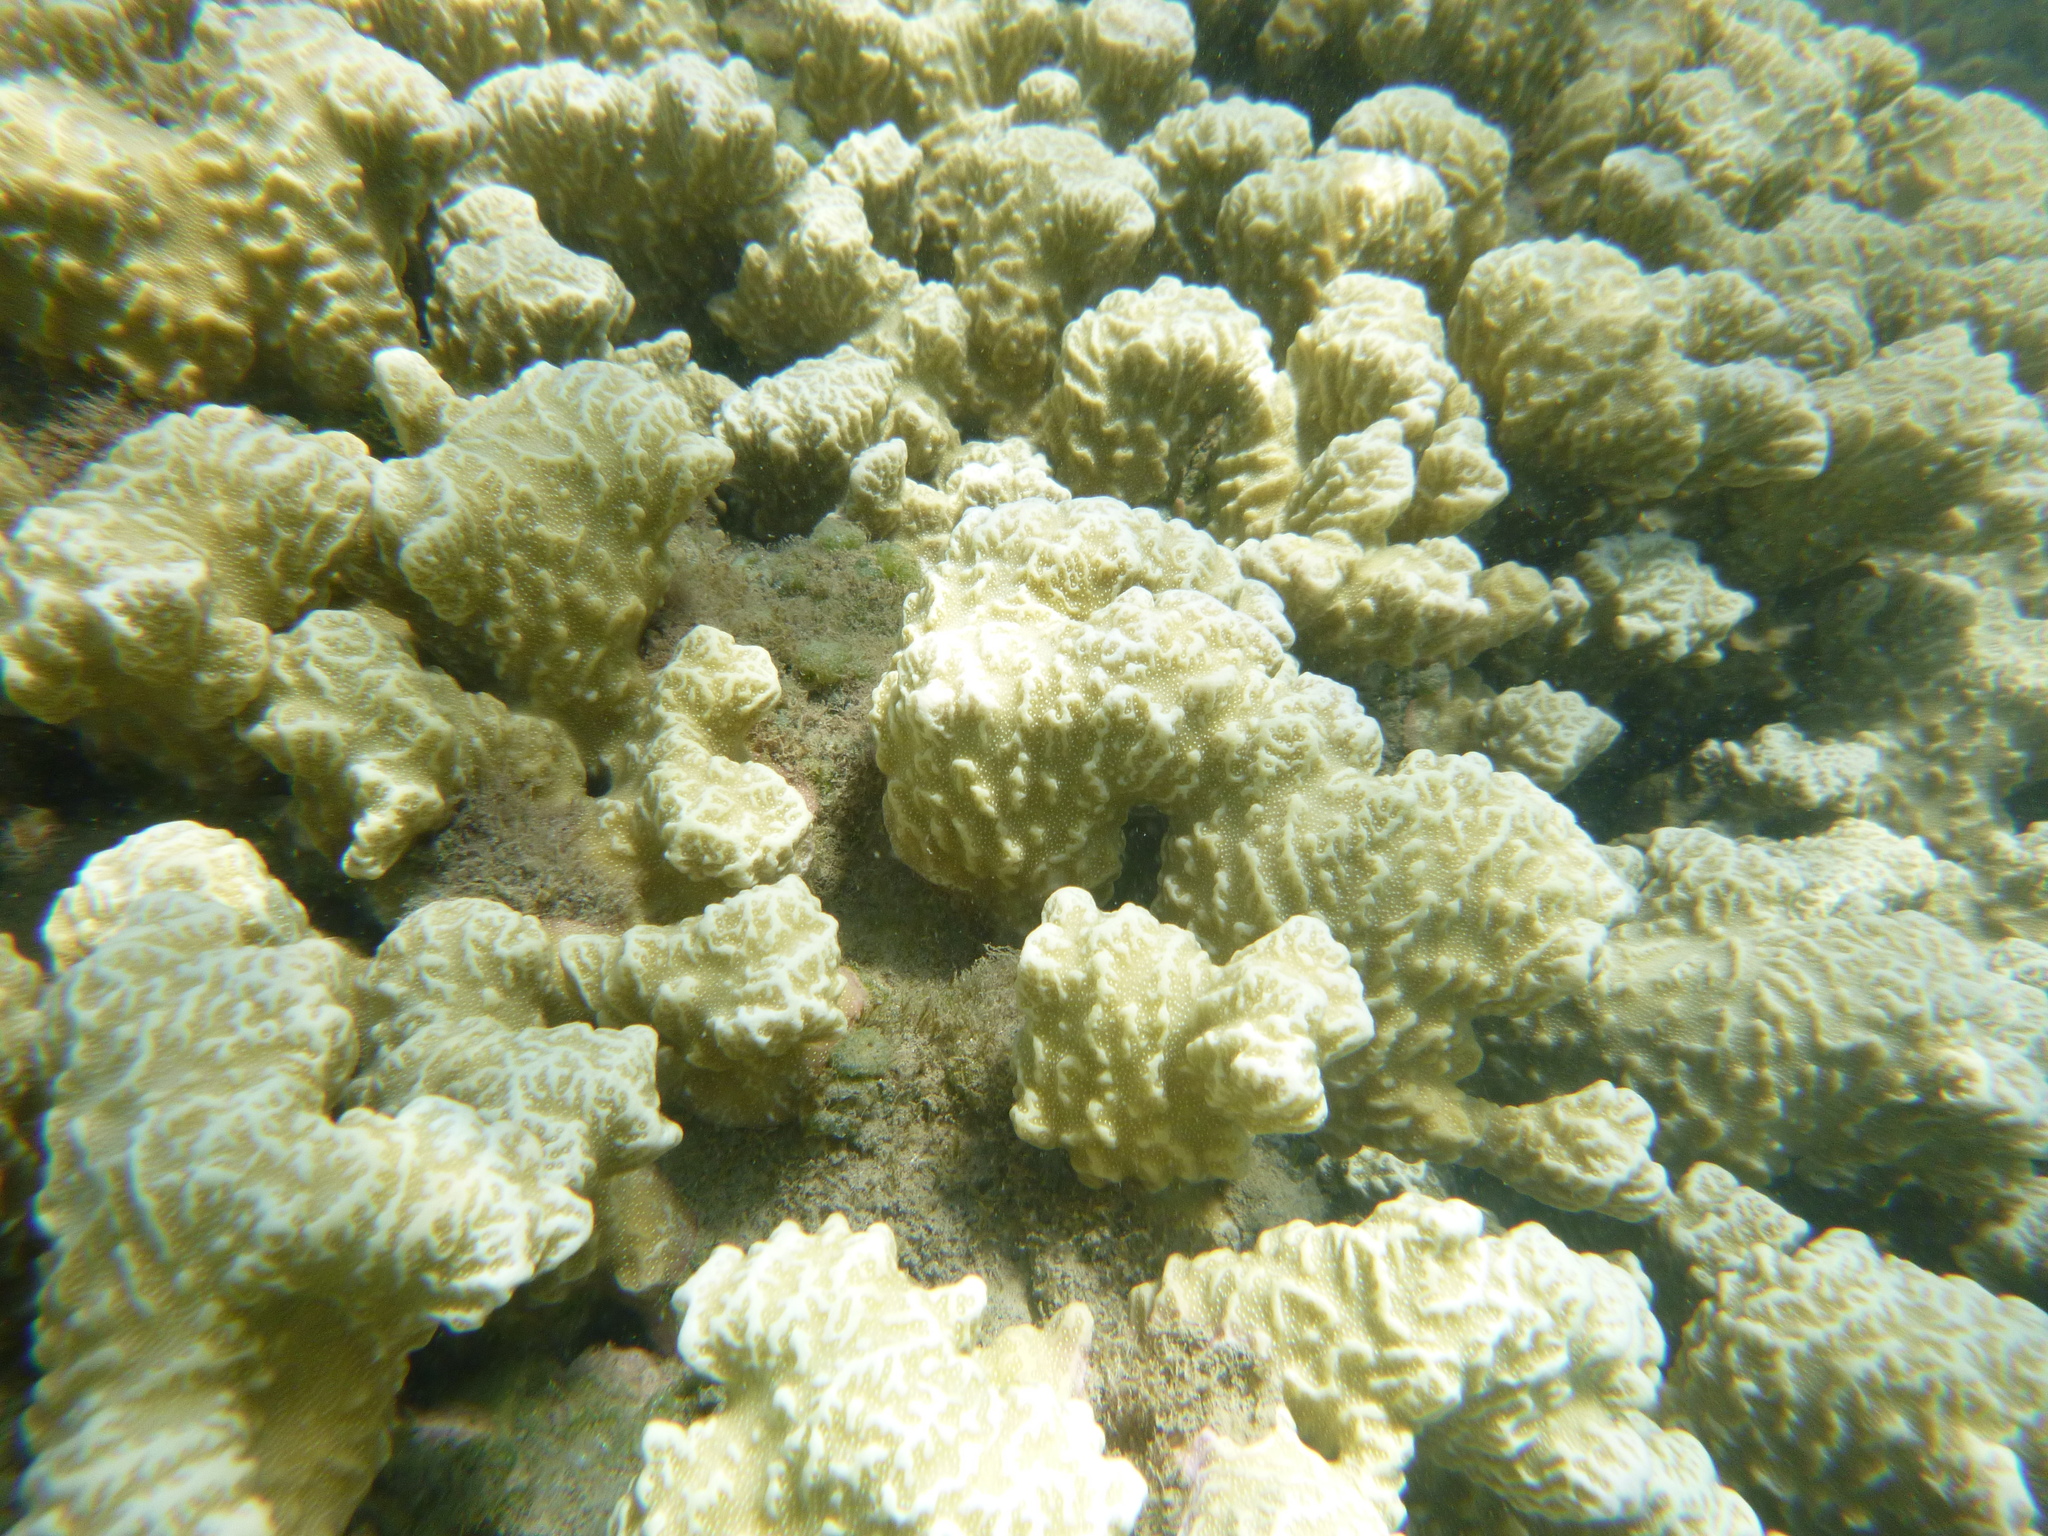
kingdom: Animalia
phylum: Cnidaria
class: Anthozoa
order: Scleractinia
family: Poritidae
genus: Porites
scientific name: Porites rus
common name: Hump coral
